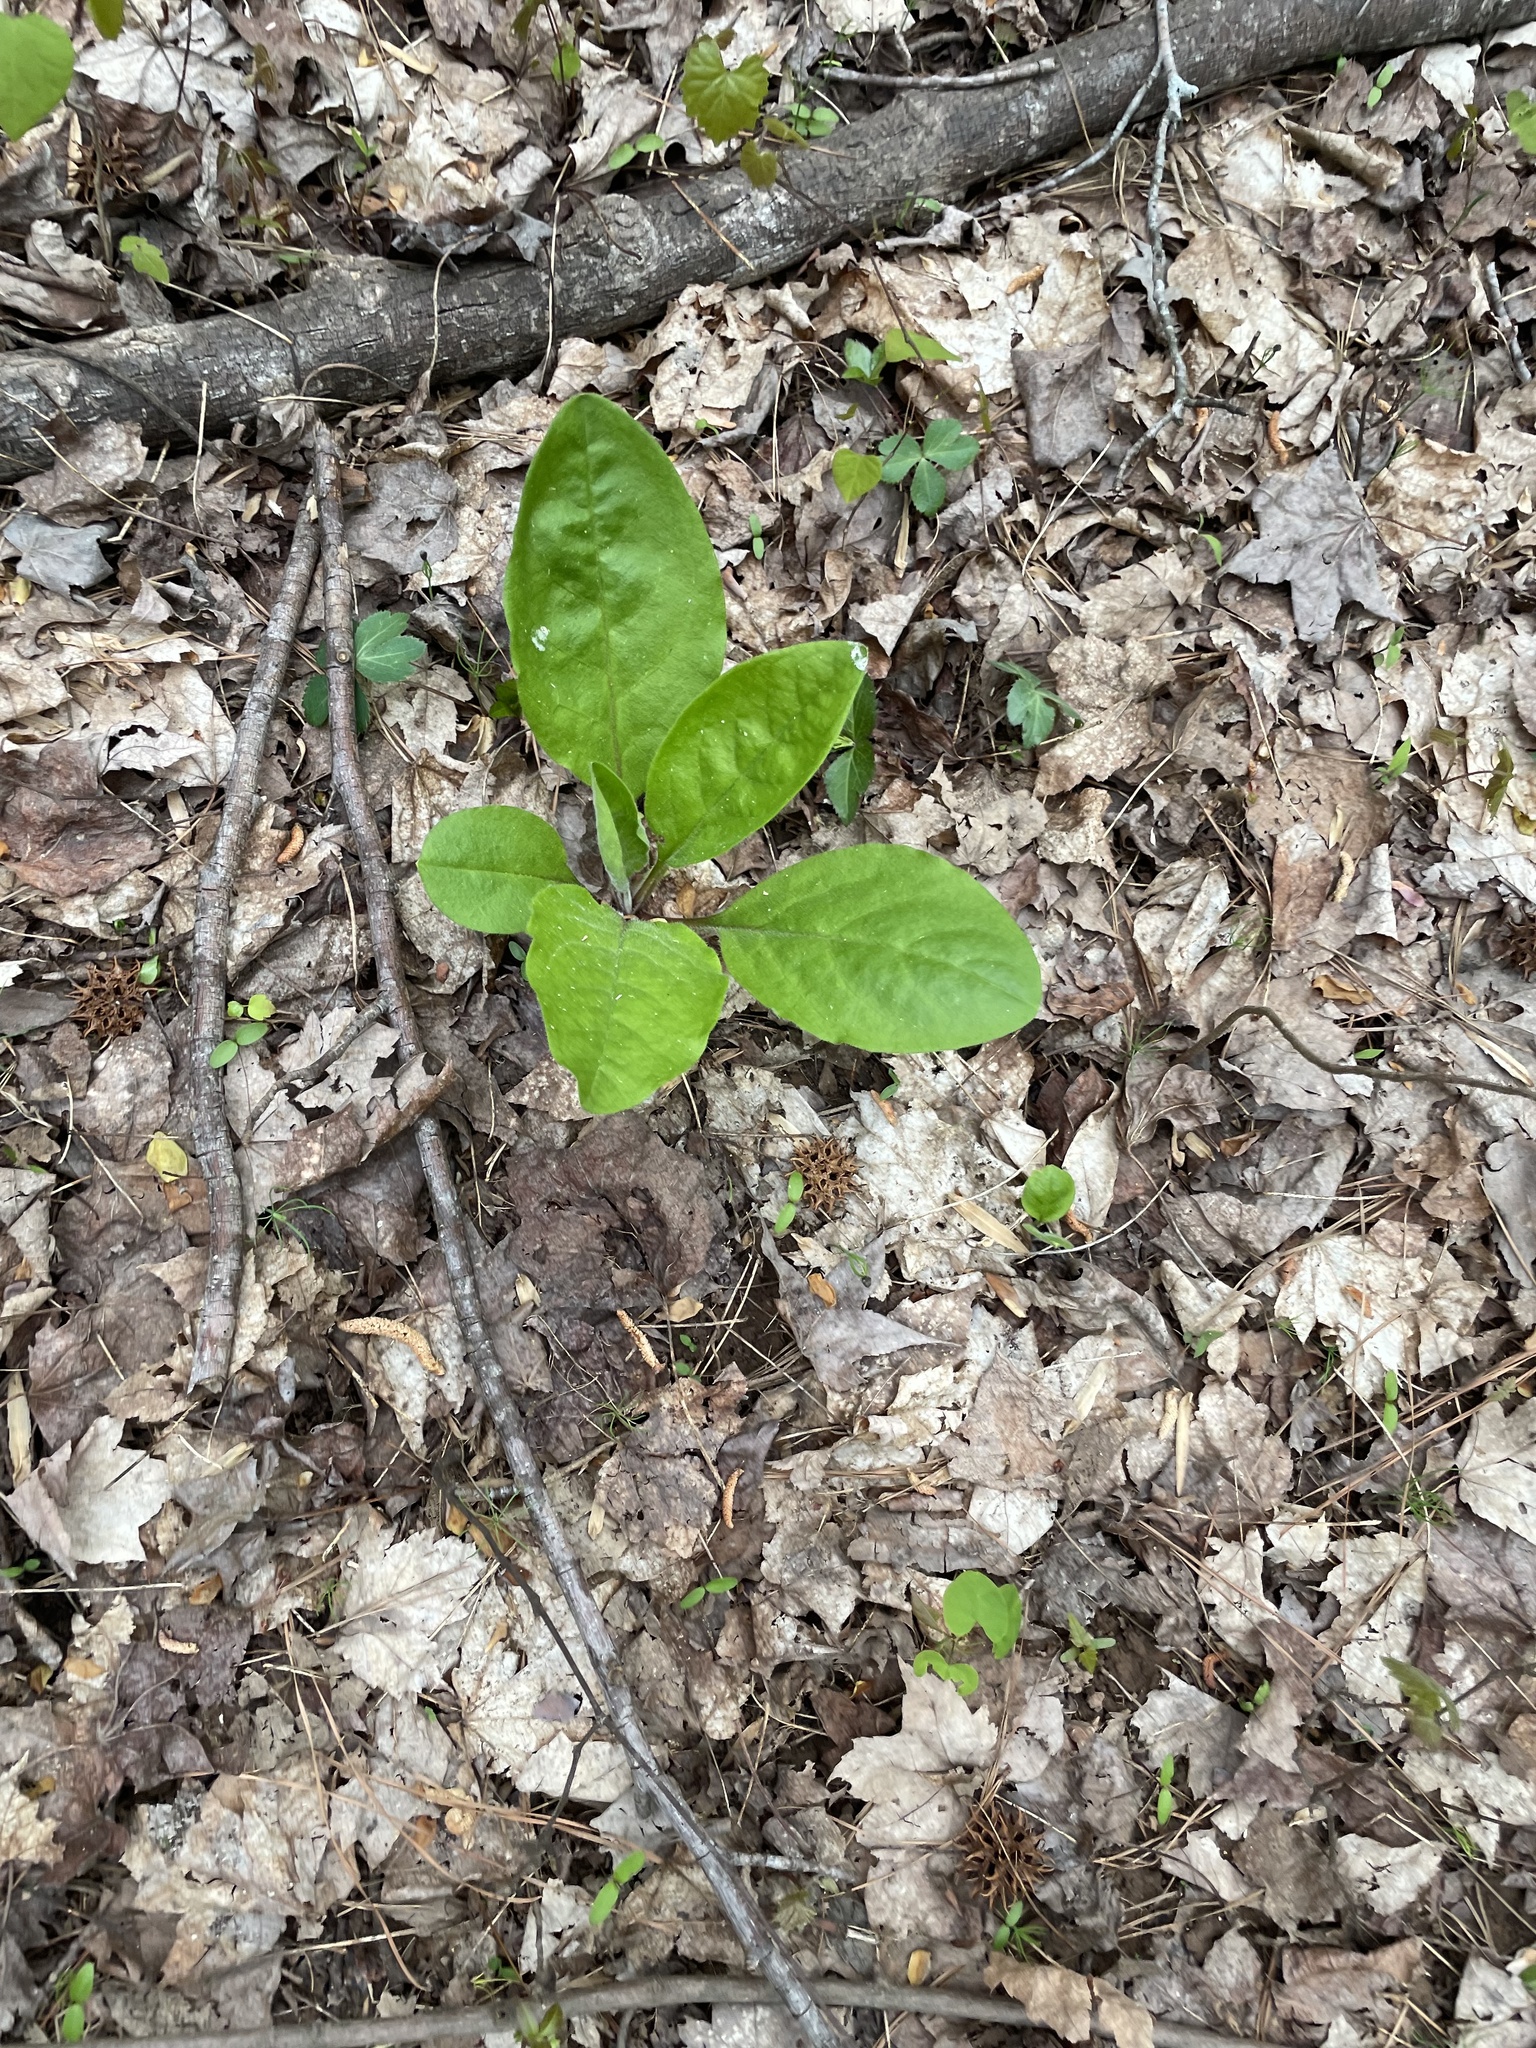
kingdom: Plantae
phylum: Tracheophyta
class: Magnoliopsida
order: Boraginales
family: Boraginaceae
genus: Andersonglossum
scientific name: Andersonglossum virginianum
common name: Wild comfrey
